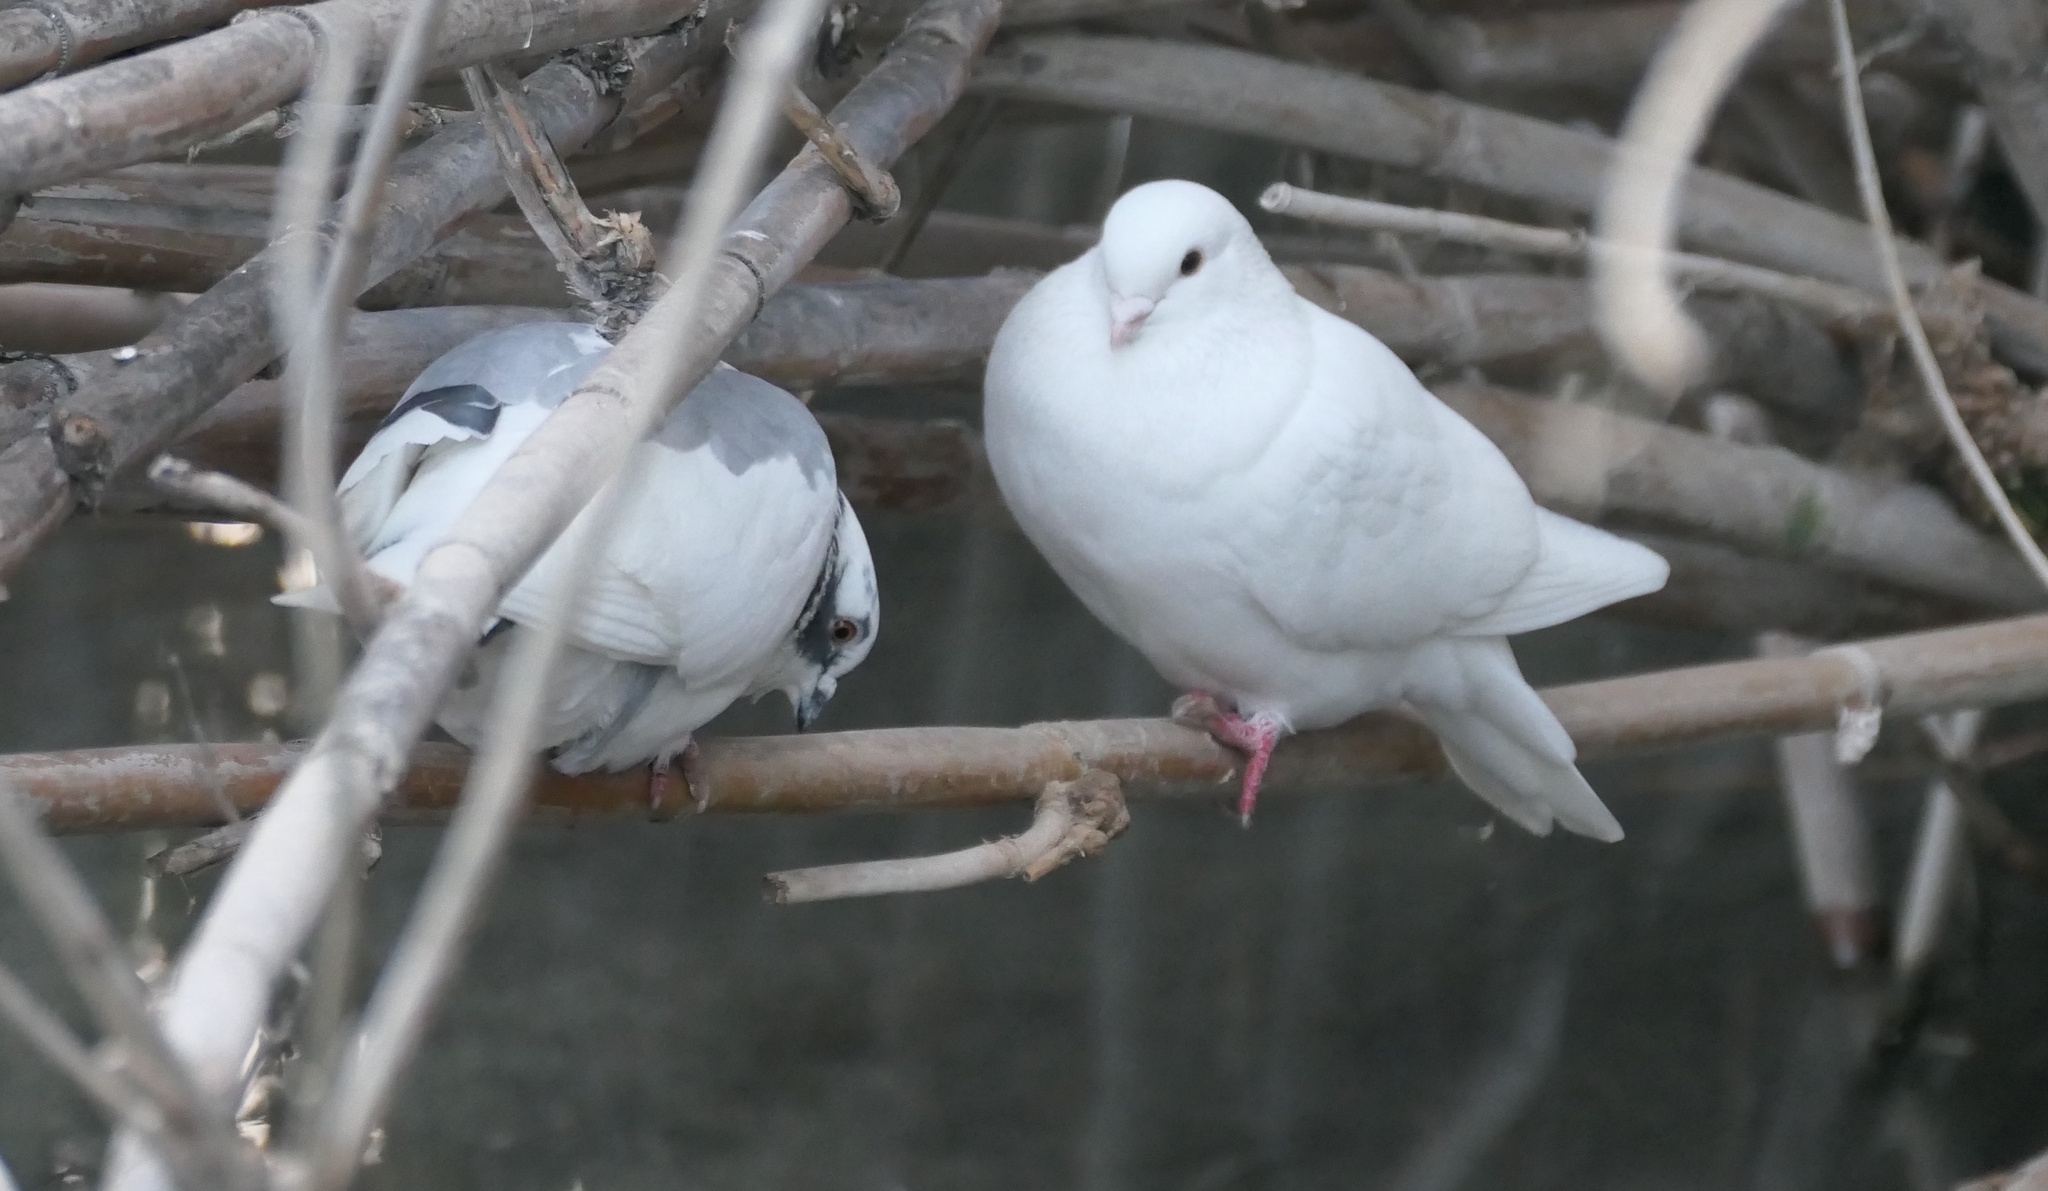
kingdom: Animalia
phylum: Chordata
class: Aves
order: Columbiformes
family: Columbidae
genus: Columba
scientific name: Columba livia
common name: Rock pigeon
